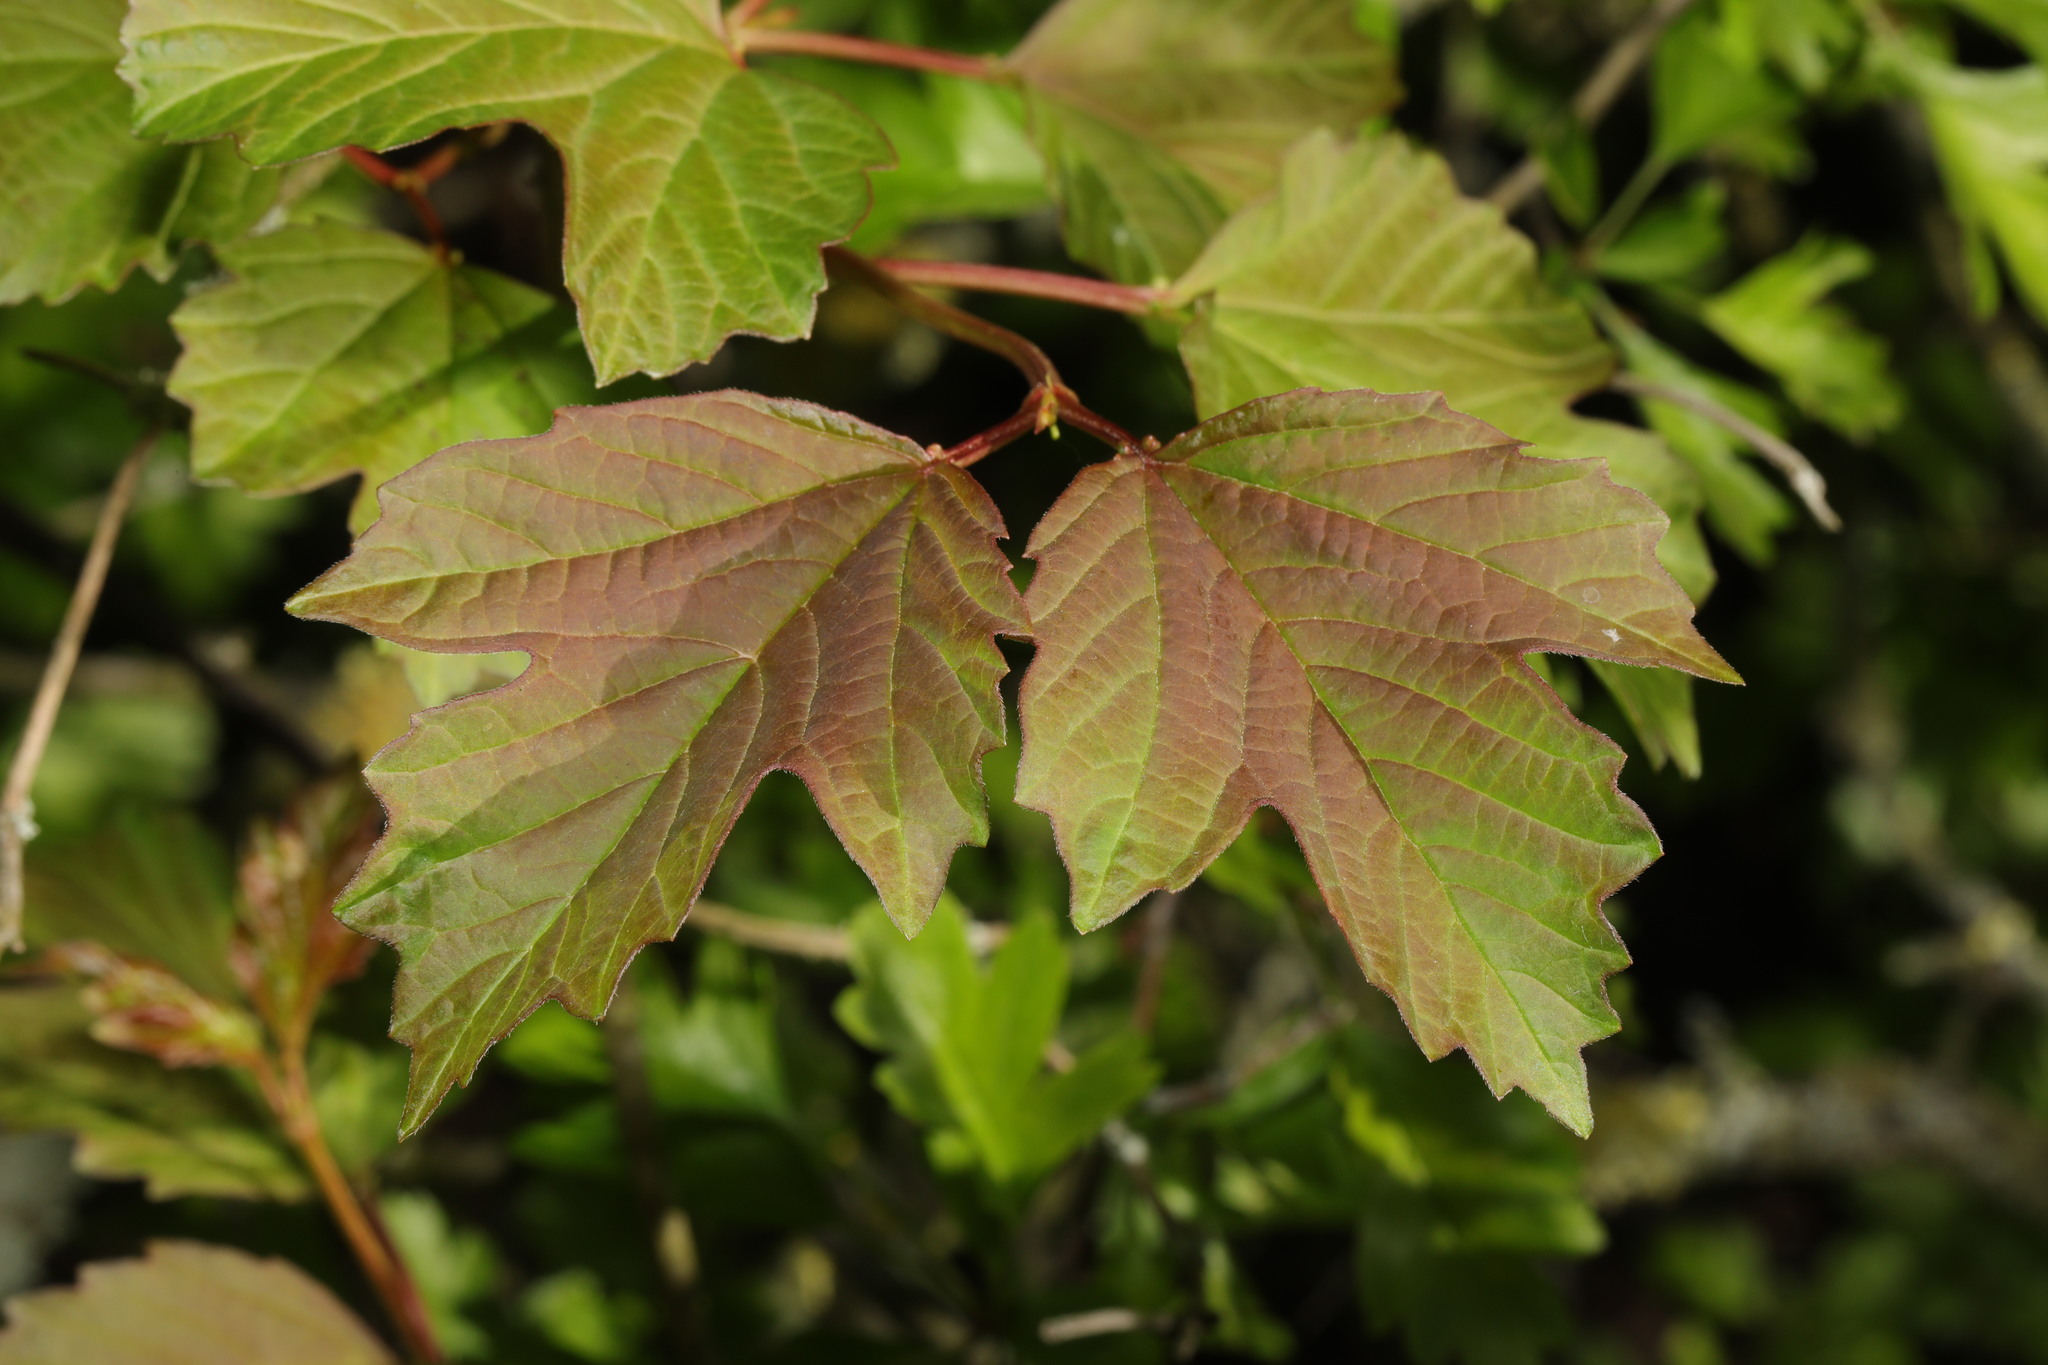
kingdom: Plantae
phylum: Tracheophyta
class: Magnoliopsida
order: Dipsacales
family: Viburnaceae
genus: Viburnum
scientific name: Viburnum opulus
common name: Guelder-rose
